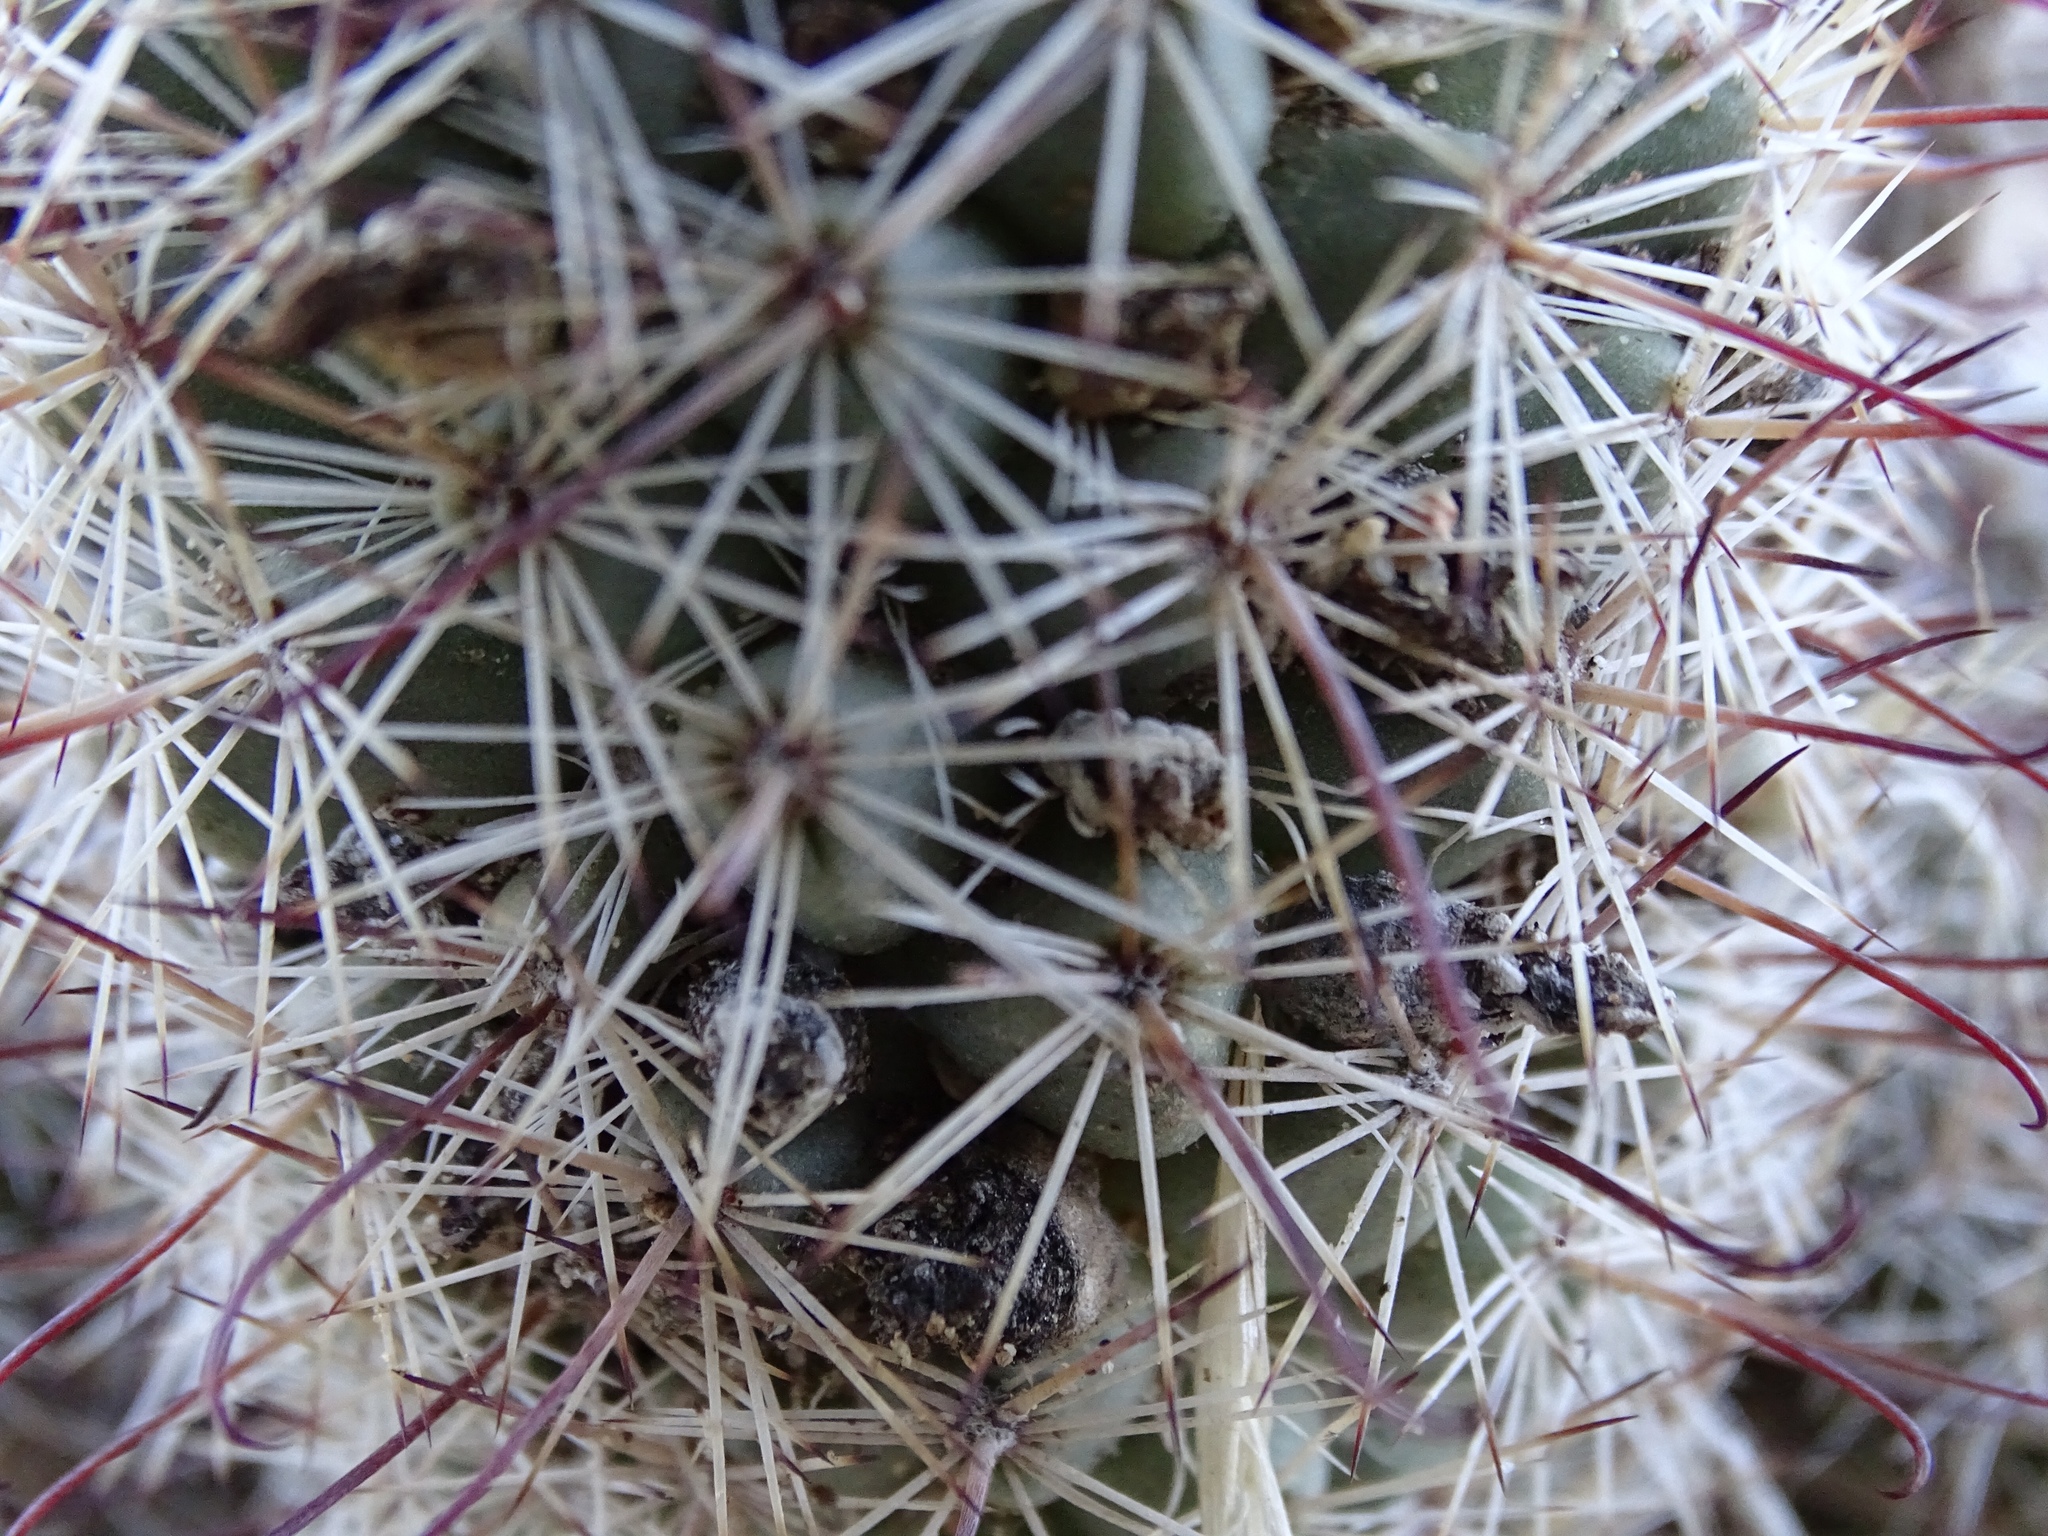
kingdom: Plantae
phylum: Tracheophyta
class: Magnoliopsida
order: Caryophyllales
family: Cactaceae
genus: Cochemiea
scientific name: Cochemiea dioica
